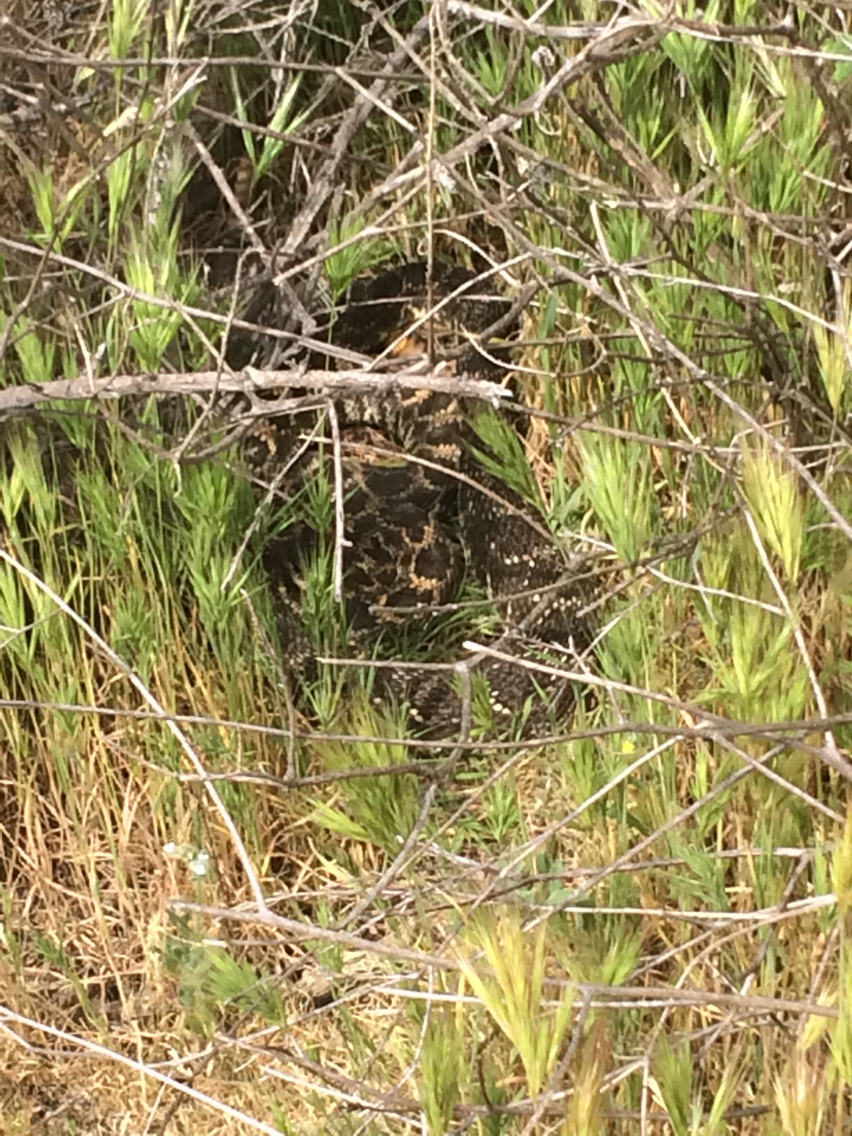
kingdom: Animalia
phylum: Chordata
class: Squamata
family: Viperidae
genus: Crotalus
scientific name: Crotalus oreganus
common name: Abyssus
